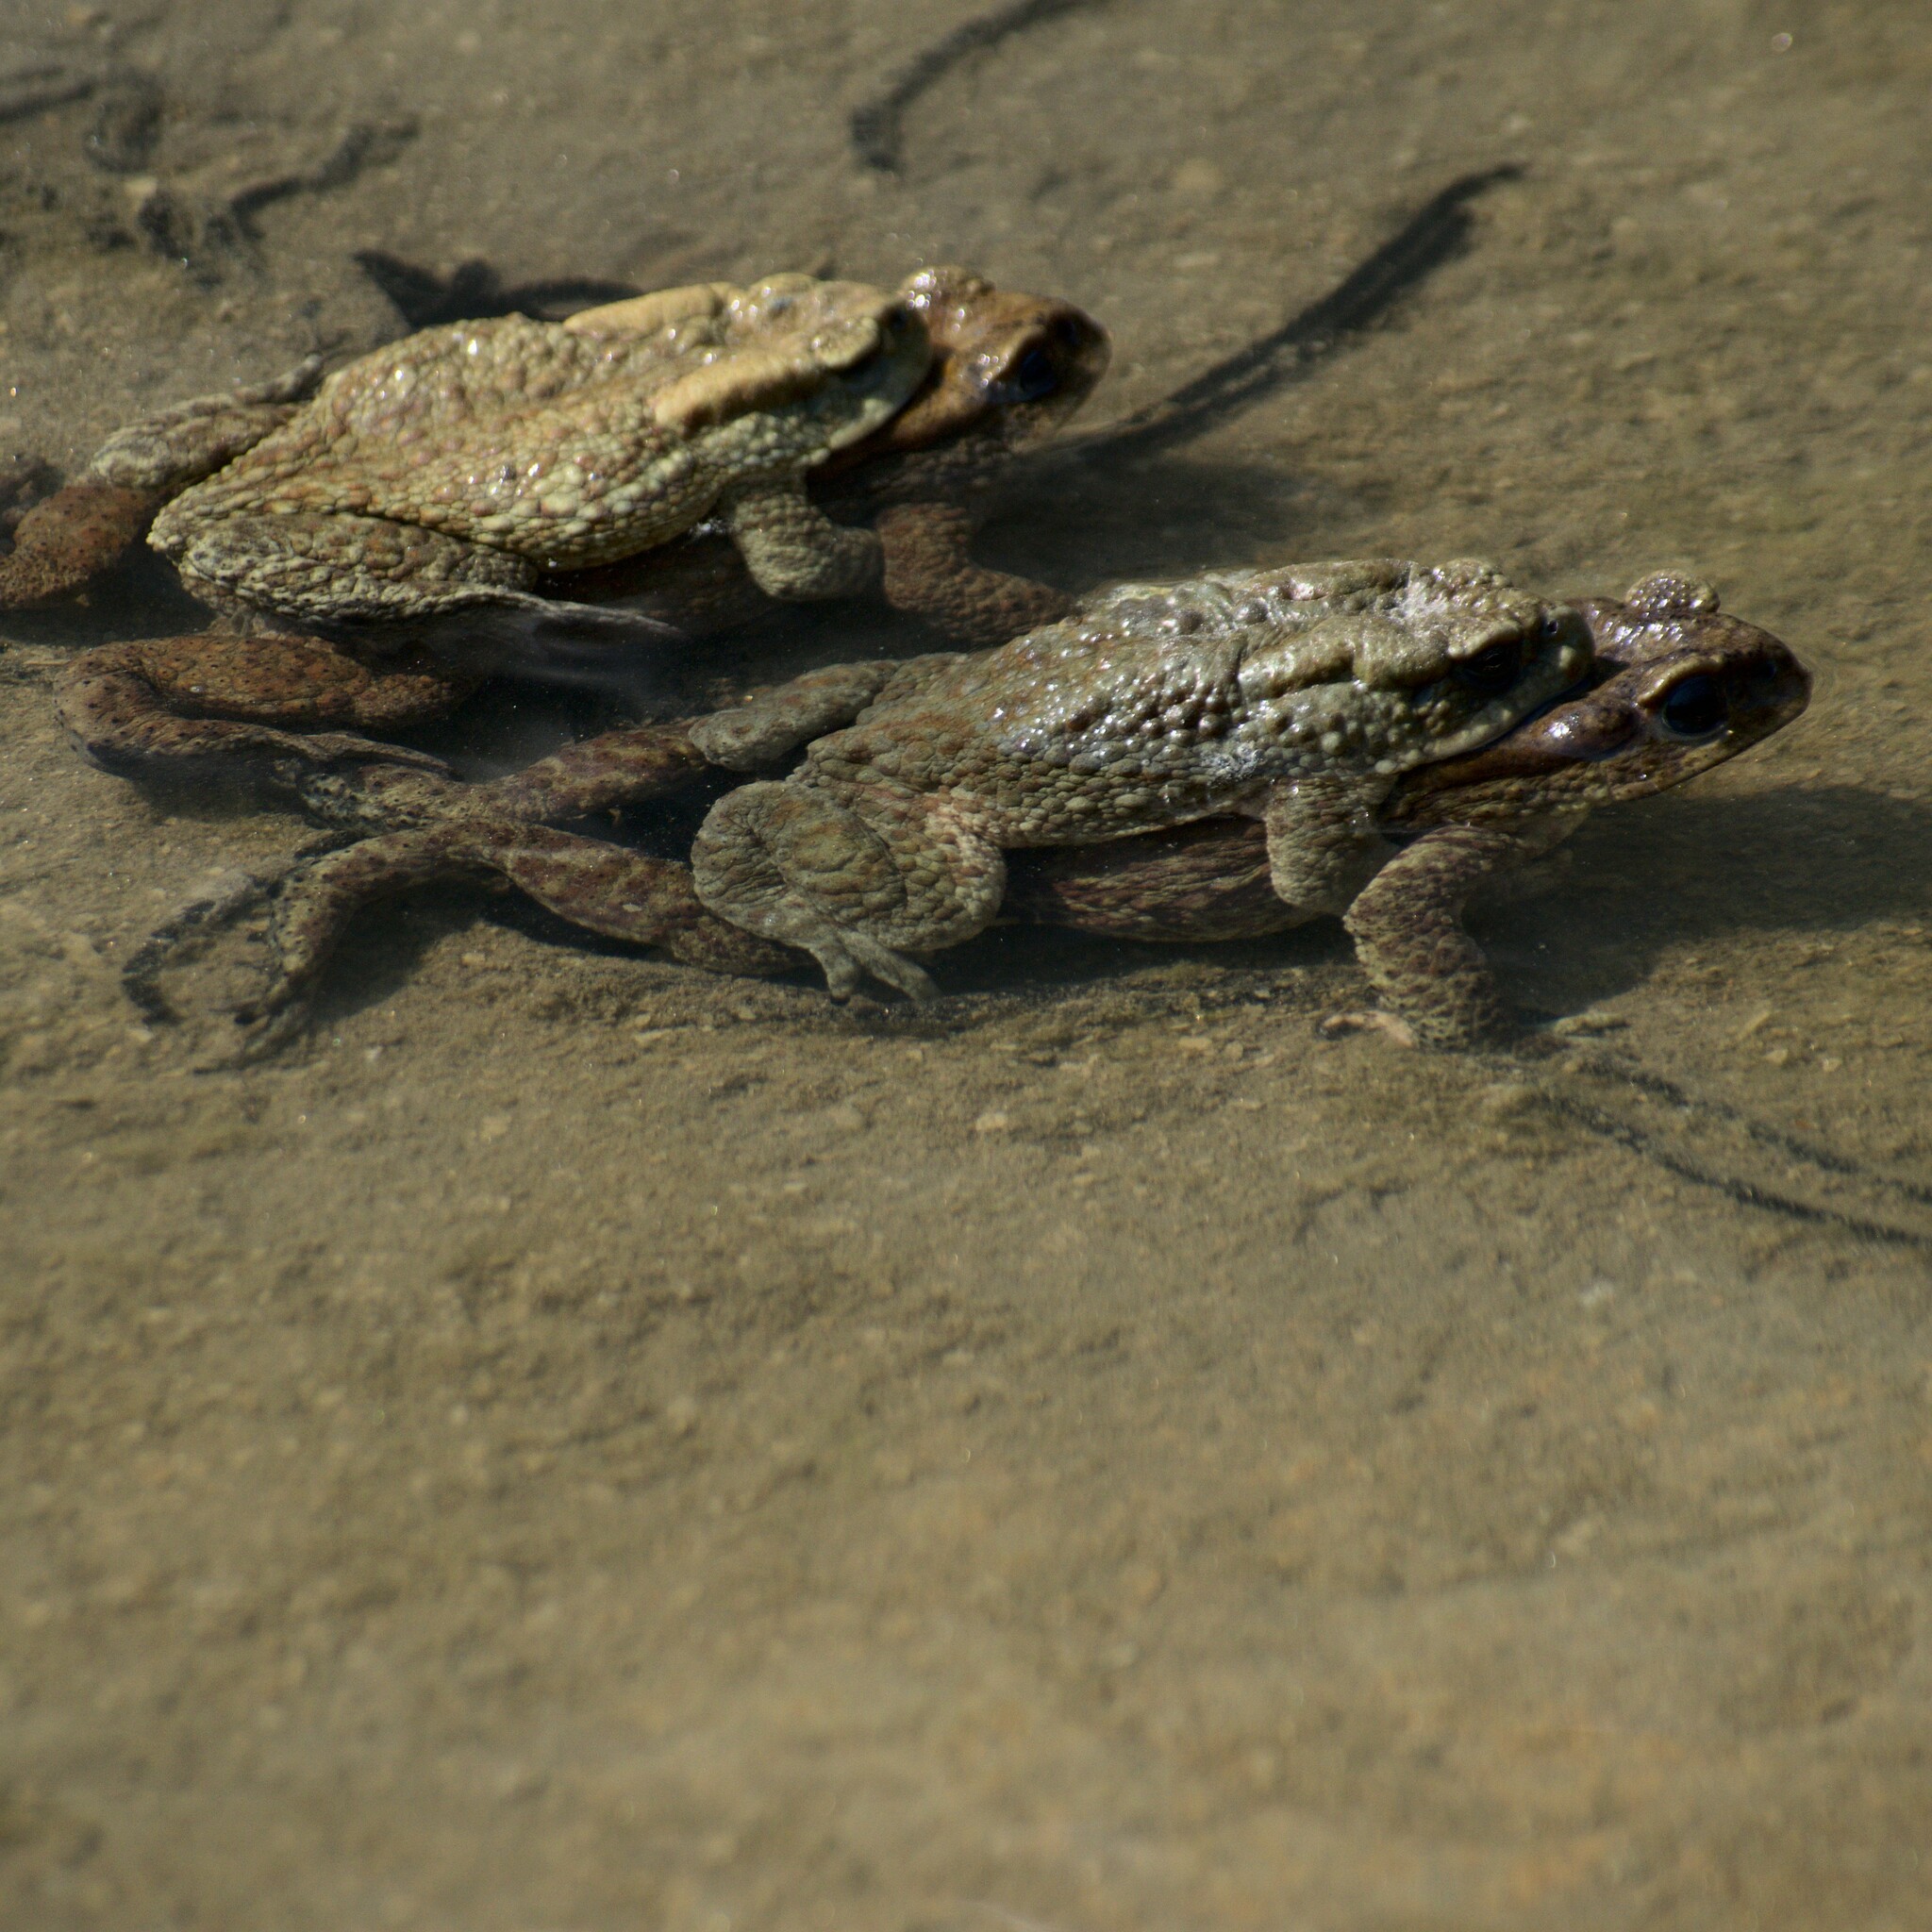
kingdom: Animalia
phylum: Chordata
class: Amphibia
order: Anura
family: Bufonidae
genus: Duttaphrynus
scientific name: Duttaphrynus himalayanus
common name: Günther's high altitude toad
